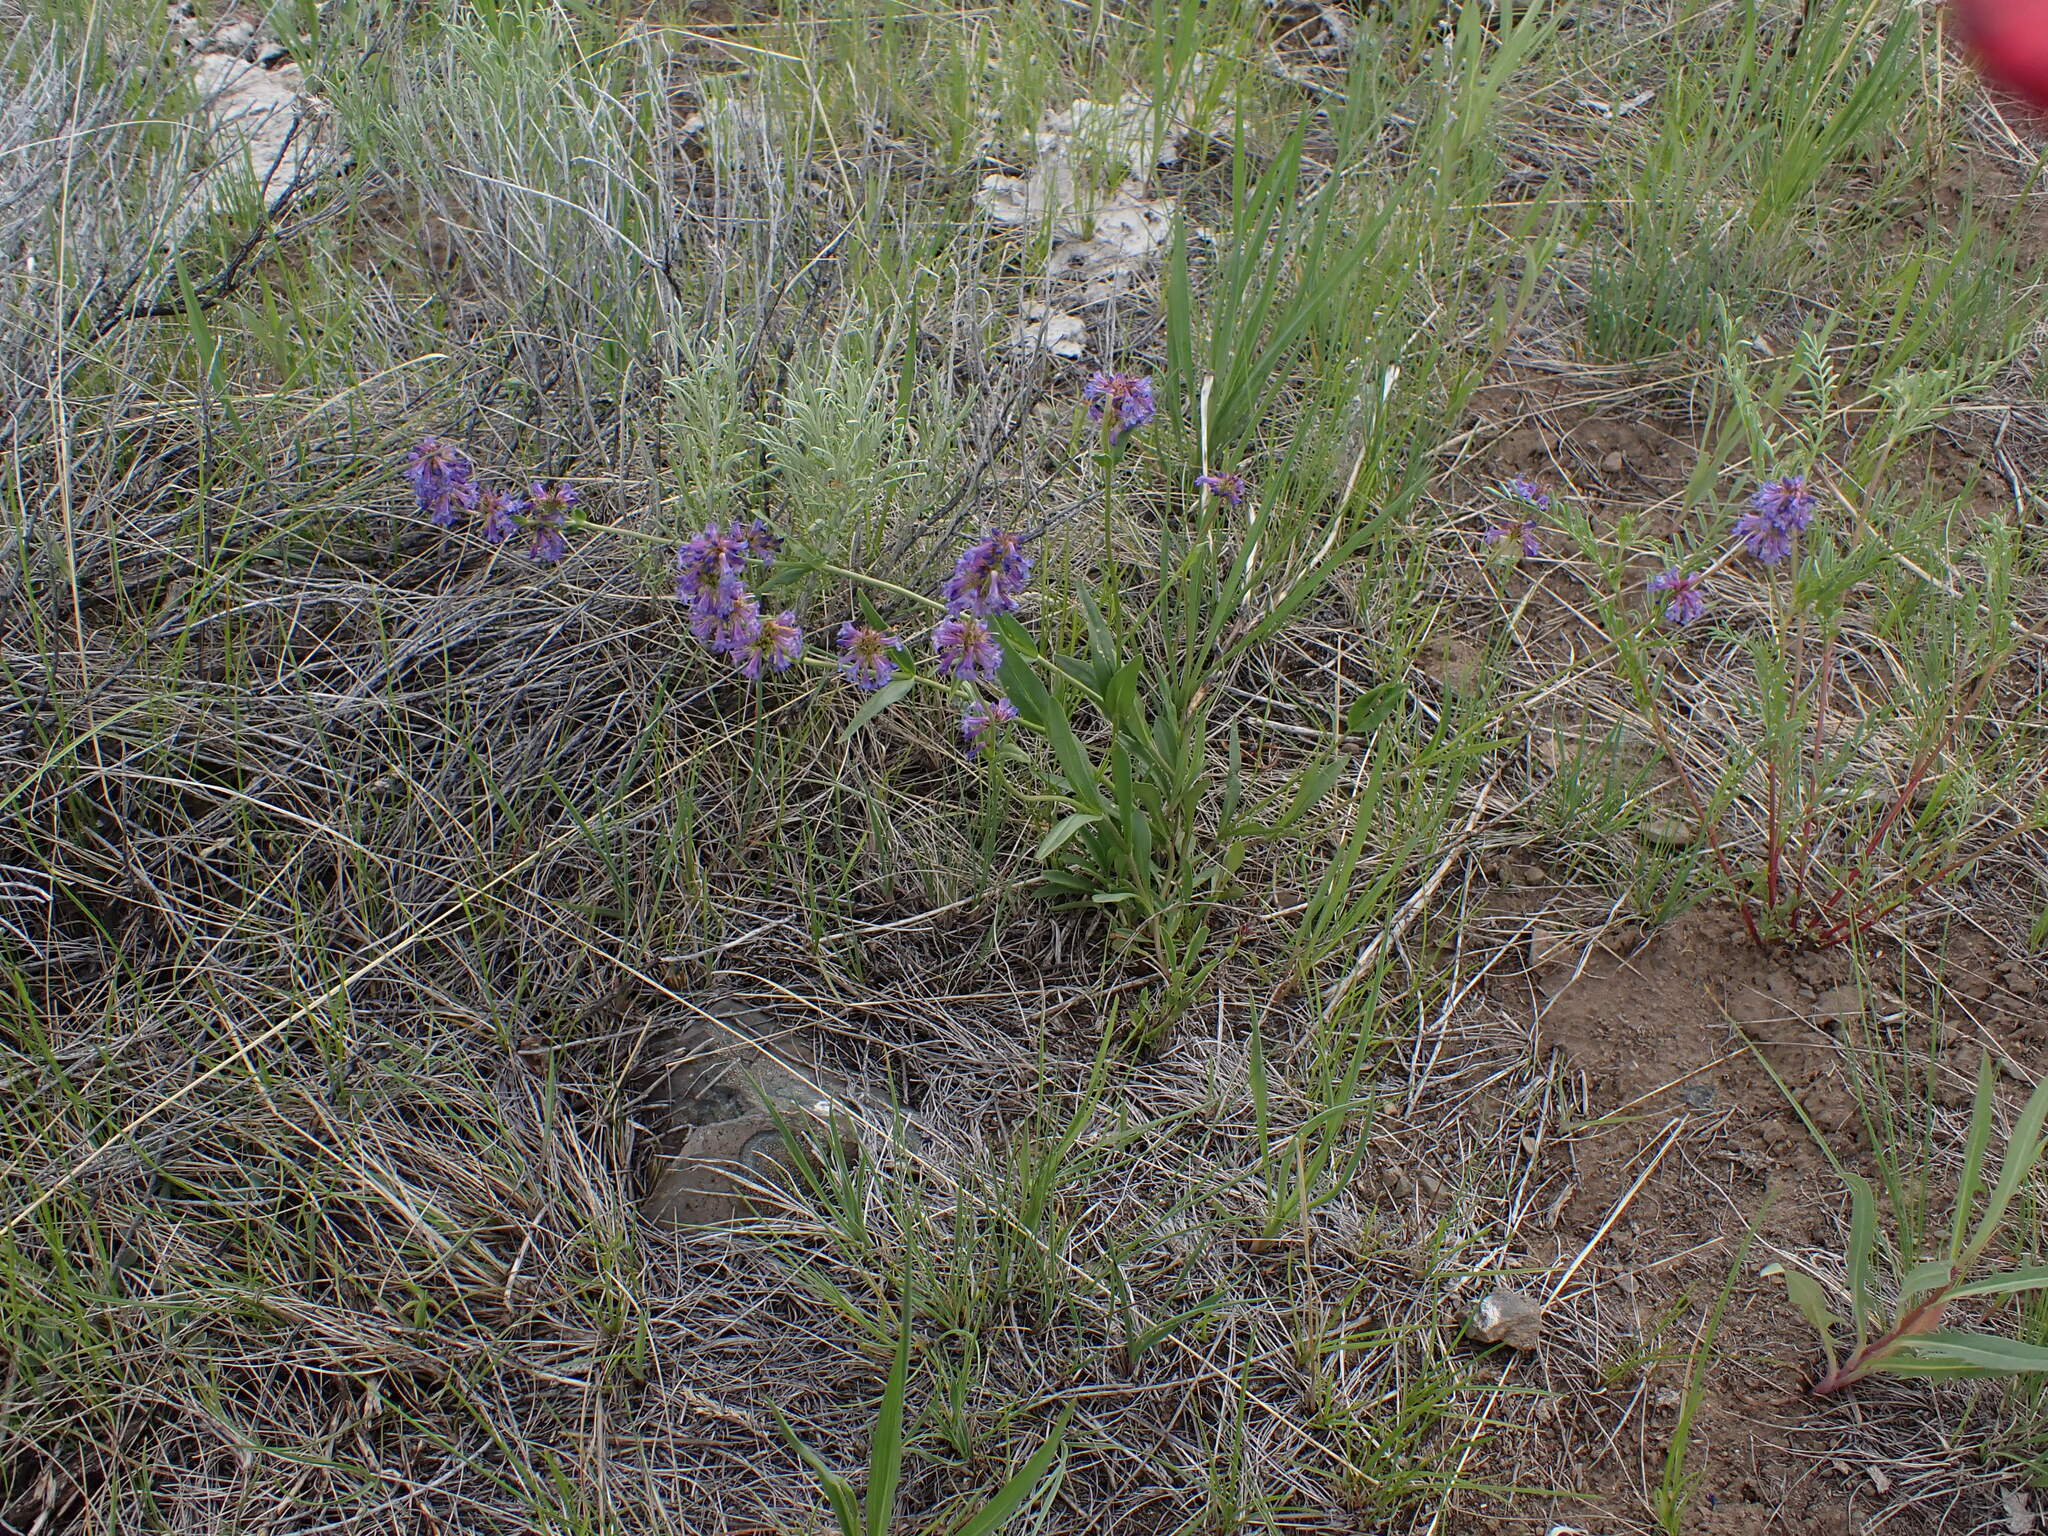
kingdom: Plantae
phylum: Tracheophyta
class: Magnoliopsida
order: Lamiales
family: Plantaginaceae
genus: Penstemon
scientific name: Penstemon procerus
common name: Small-flower penstemon
